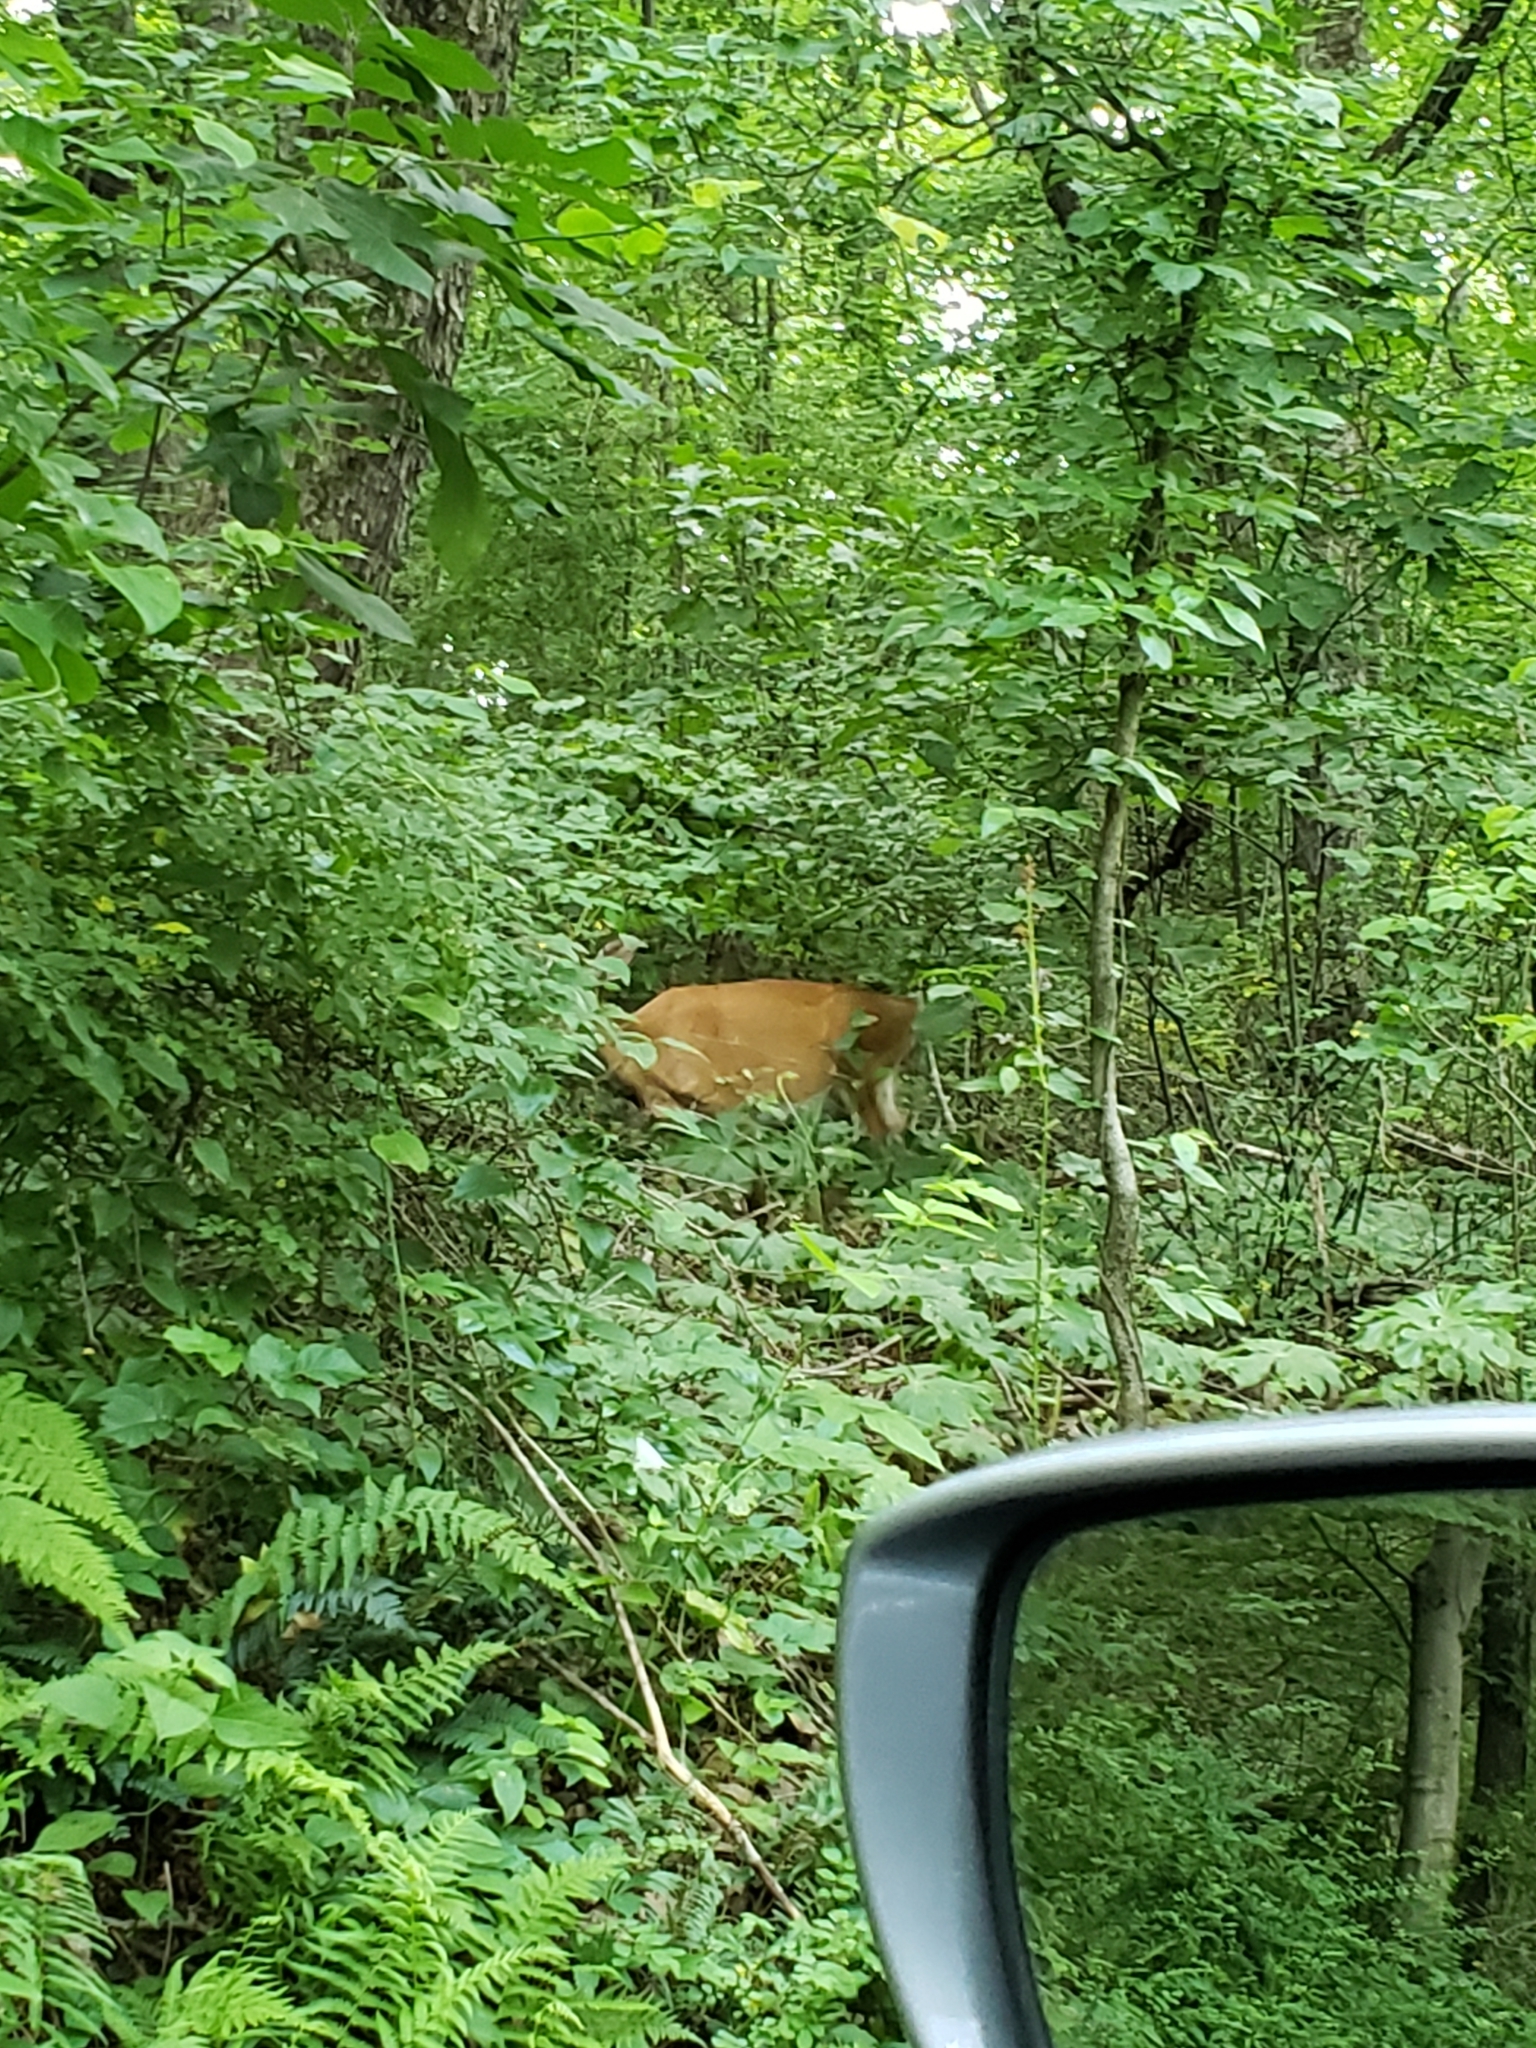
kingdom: Animalia
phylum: Chordata
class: Mammalia
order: Artiodactyla
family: Cervidae
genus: Odocoileus
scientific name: Odocoileus virginianus
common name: White-tailed deer
